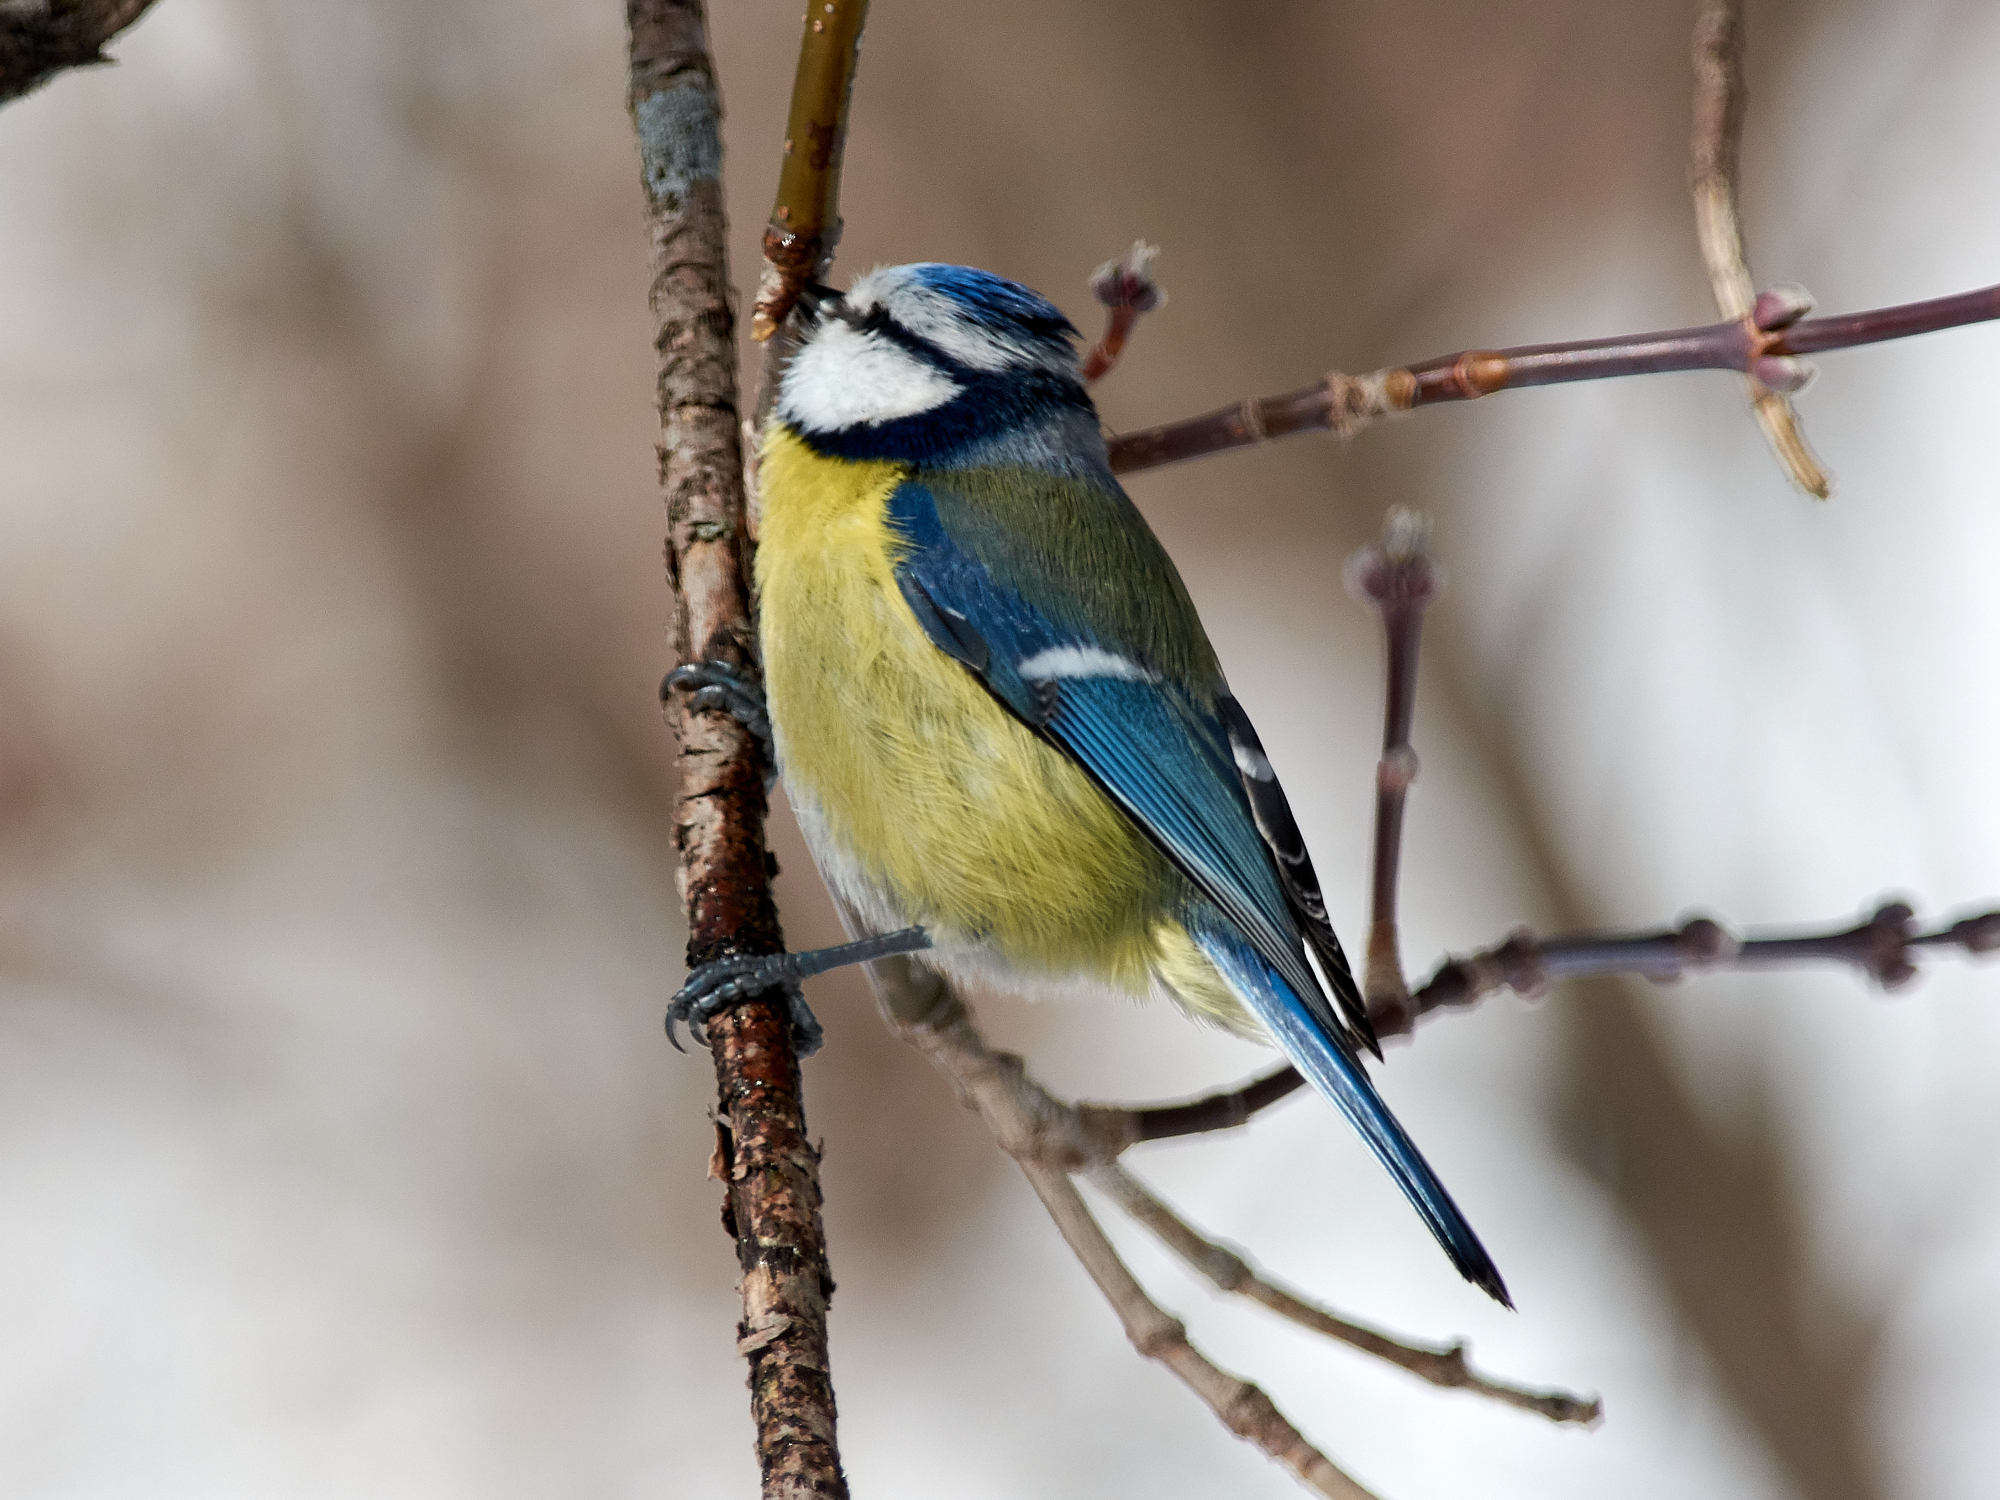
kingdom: Animalia
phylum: Chordata
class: Aves
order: Passeriformes
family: Paridae
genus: Cyanistes
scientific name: Cyanistes caeruleus
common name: Eurasian blue tit
